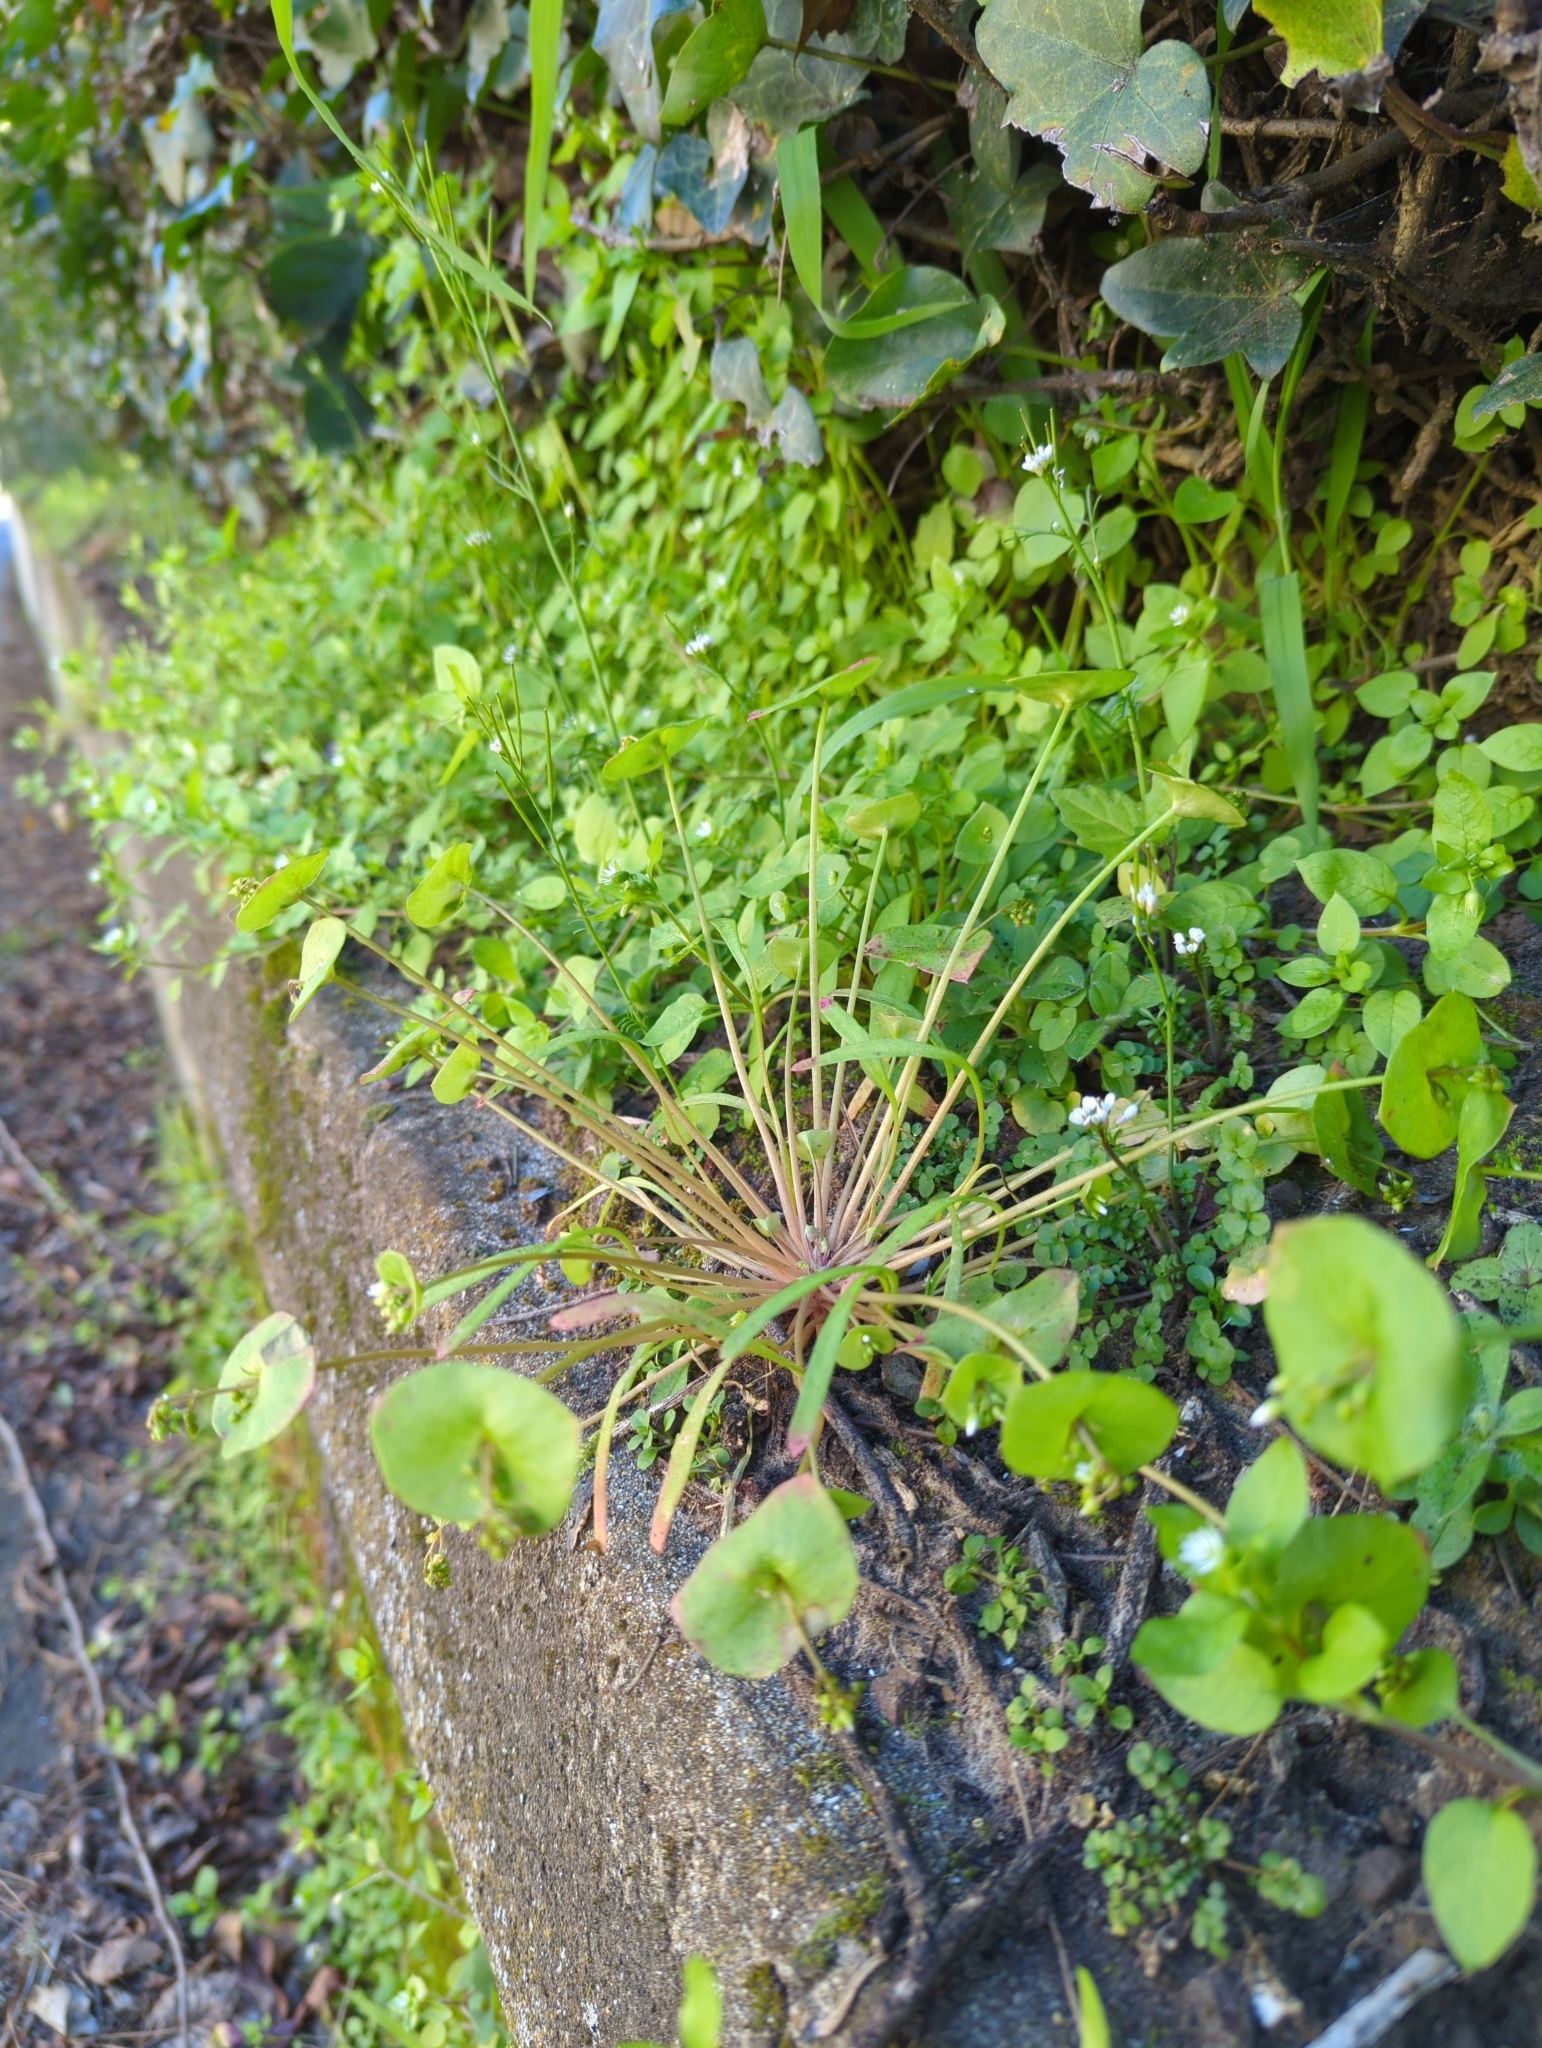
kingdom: Plantae
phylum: Tracheophyta
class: Magnoliopsida
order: Caryophyllales
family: Montiaceae
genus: Claytonia
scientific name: Claytonia parviflora
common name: Indian-lettuce
